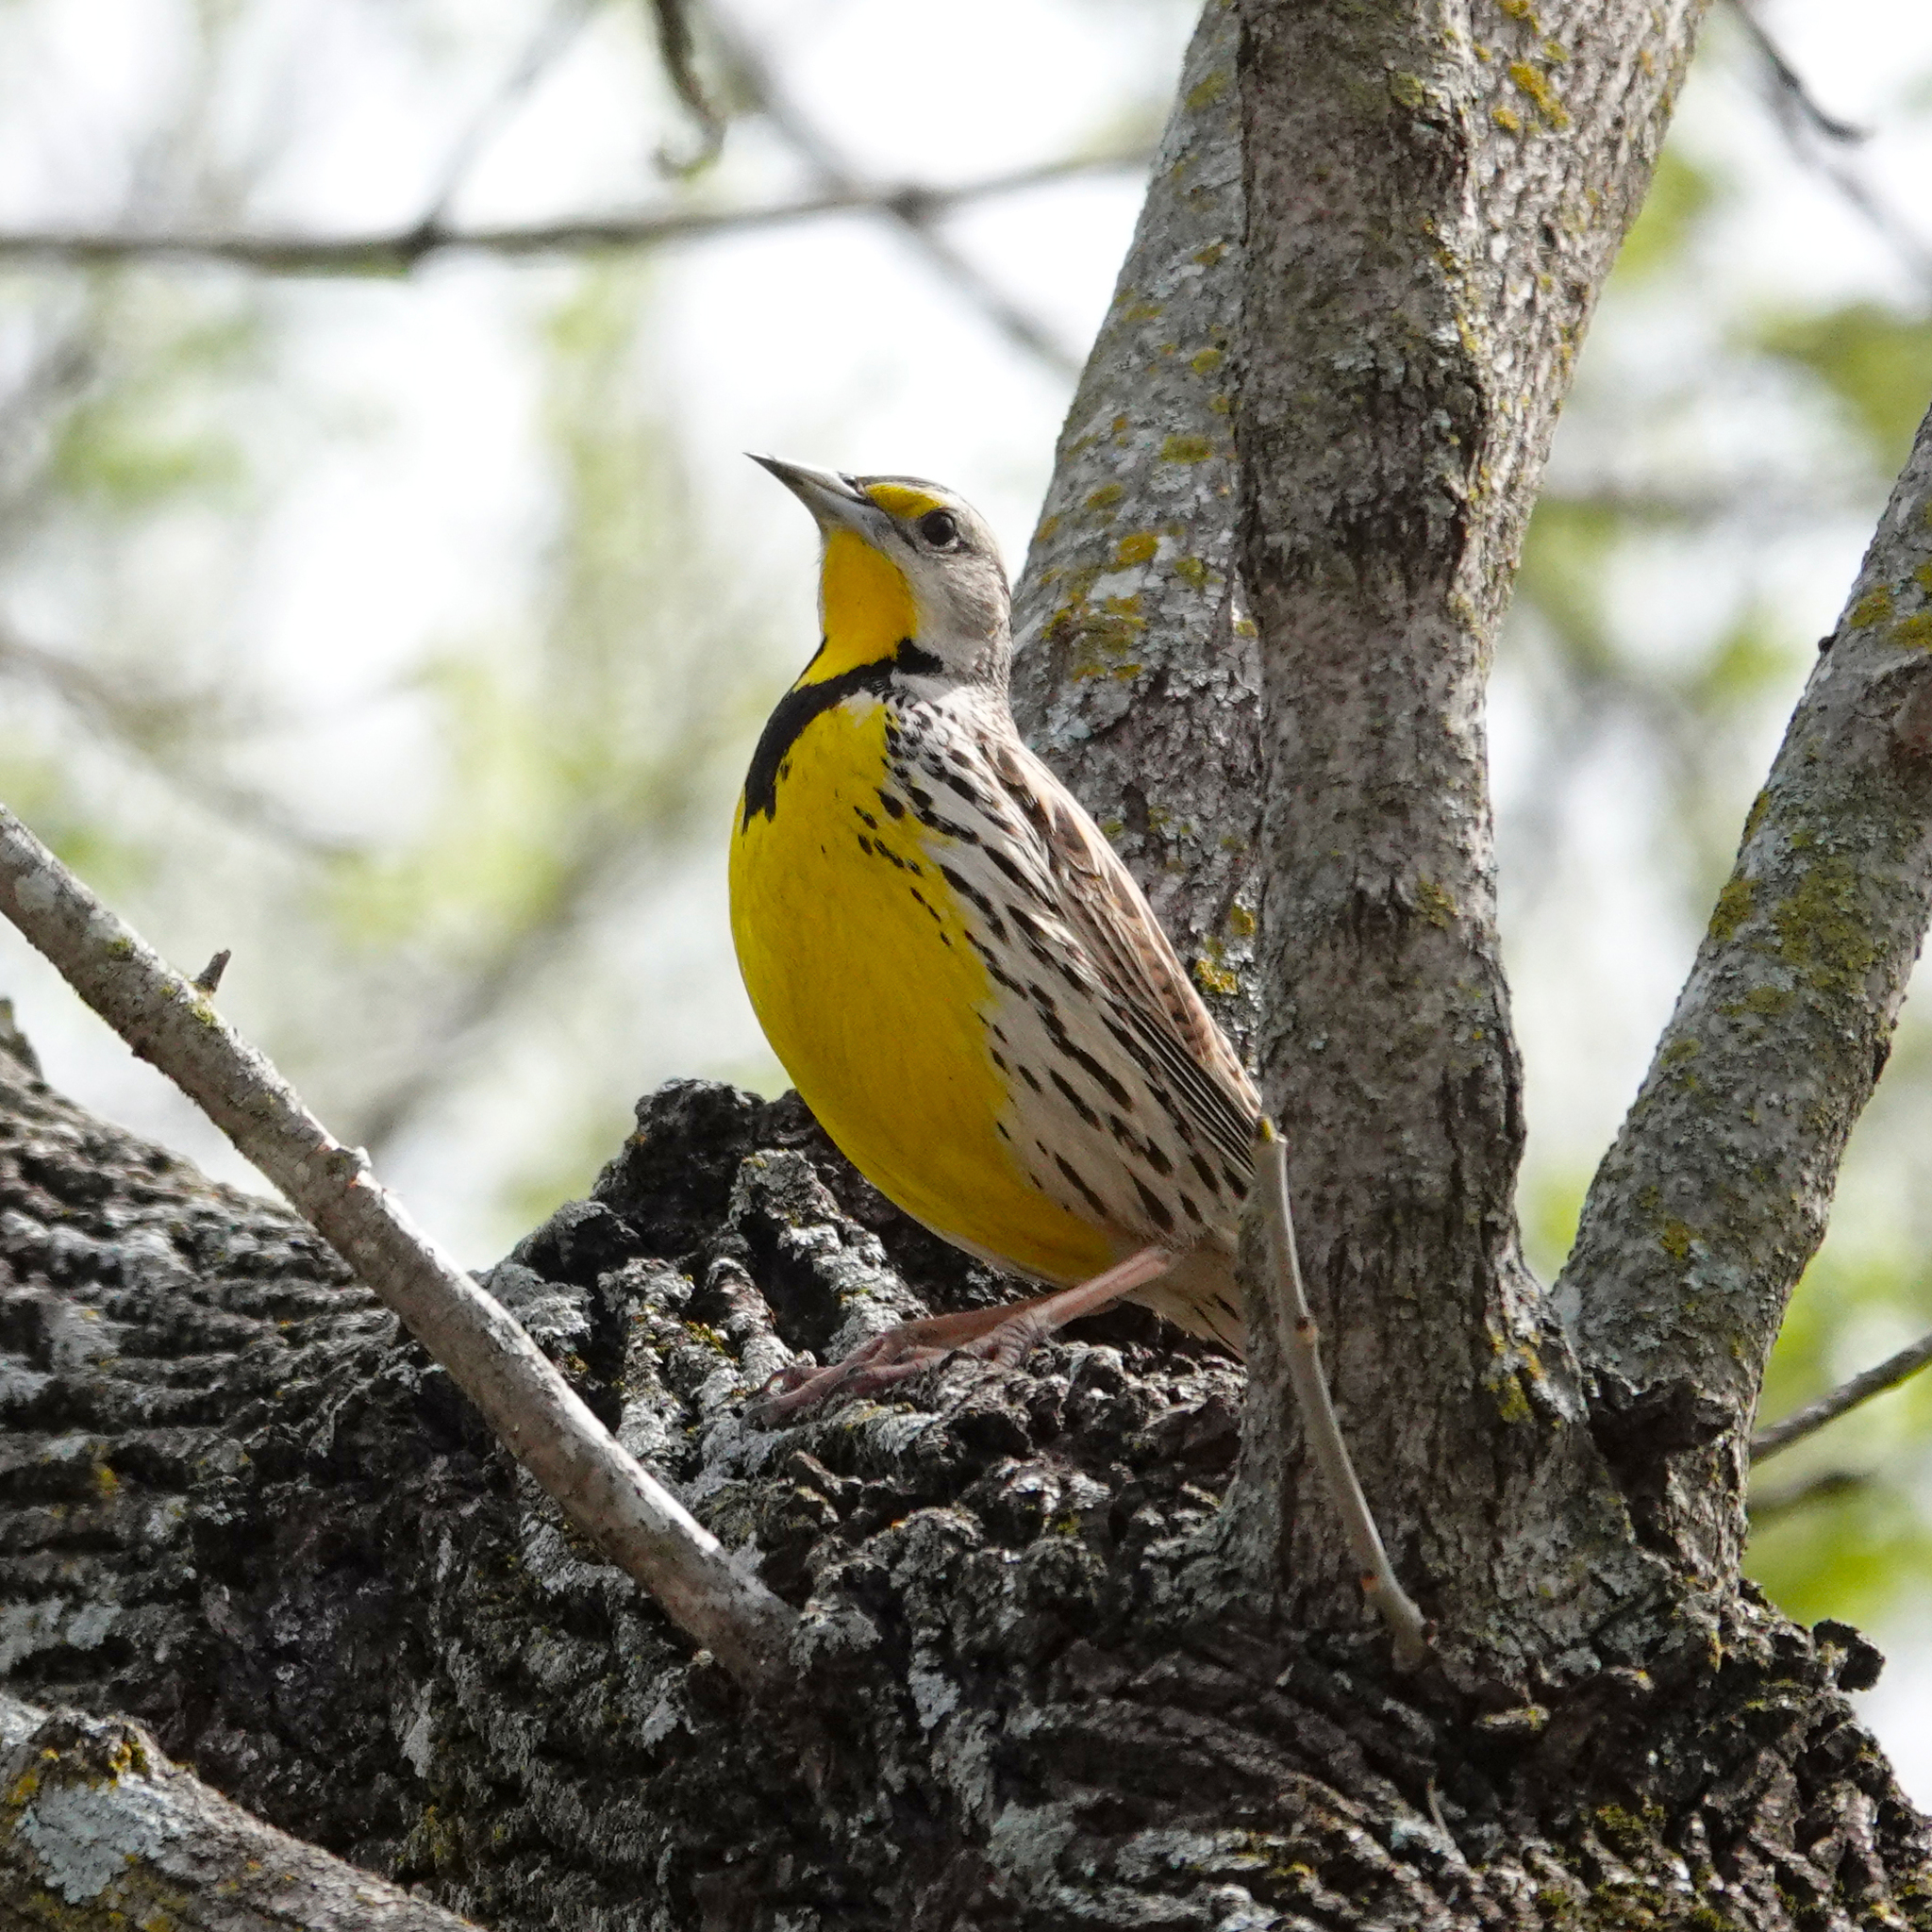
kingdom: Animalia
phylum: Chordata
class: Aves
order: Passeriformes
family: Icteridae
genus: Sturnella
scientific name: Sturnella magna
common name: Eastern meadowlark
